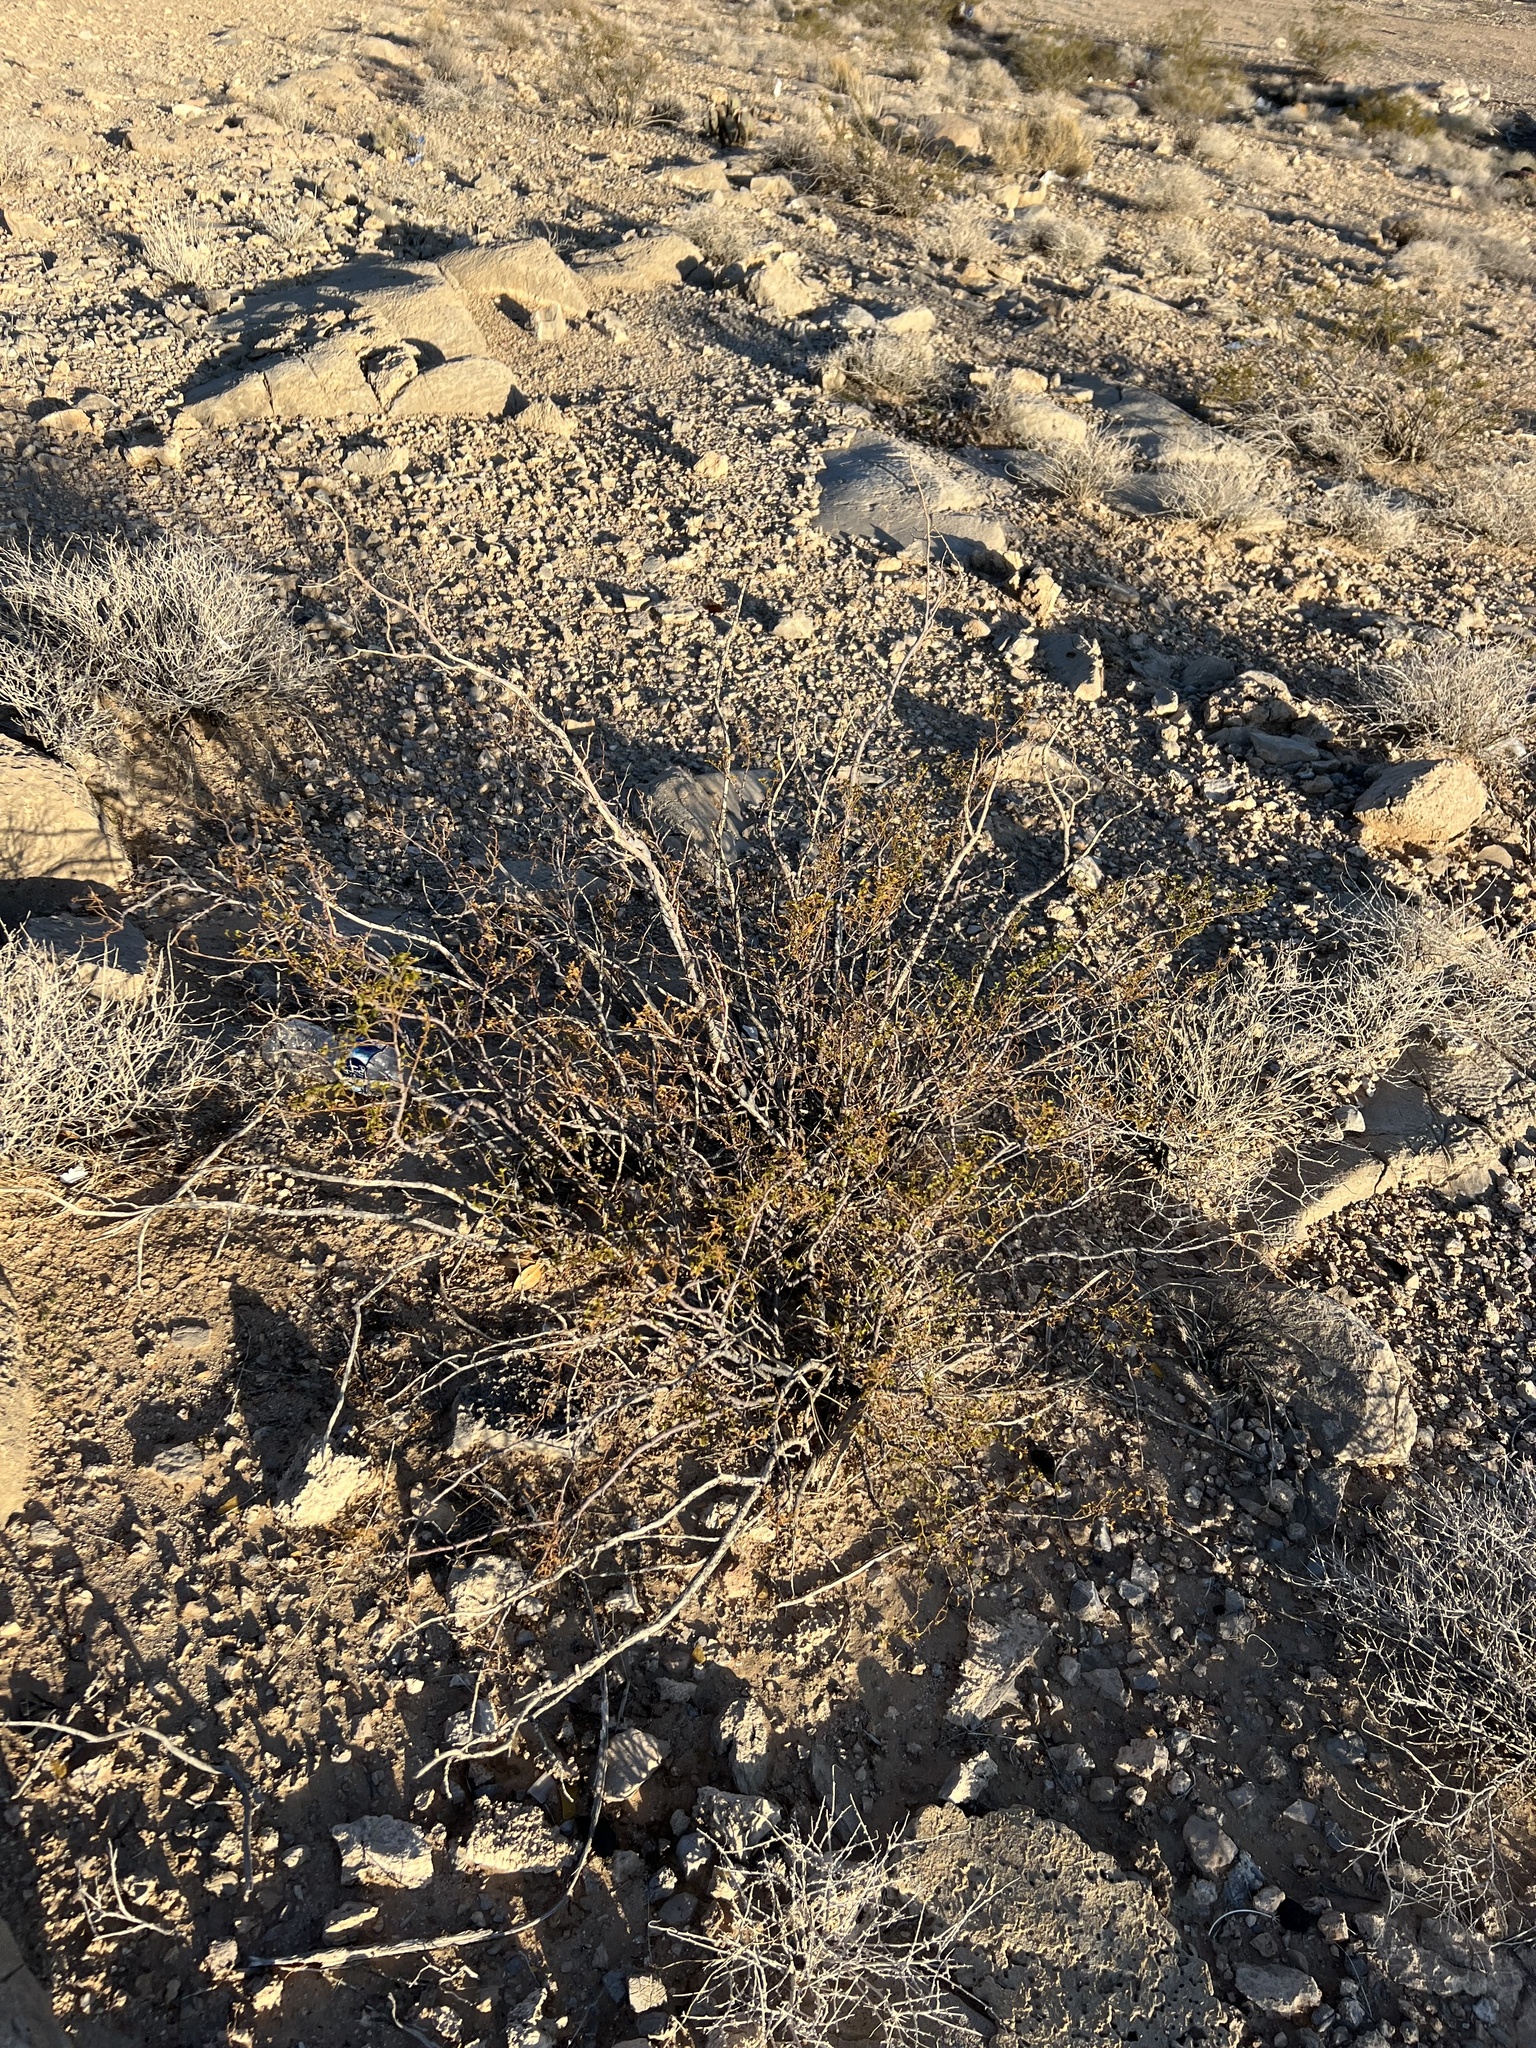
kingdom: Plantae
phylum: Tracheophyta
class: Magnoliopsida
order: Zygophyllales
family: Zygophyllaceae
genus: Larrea
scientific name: Larrea tridentata
